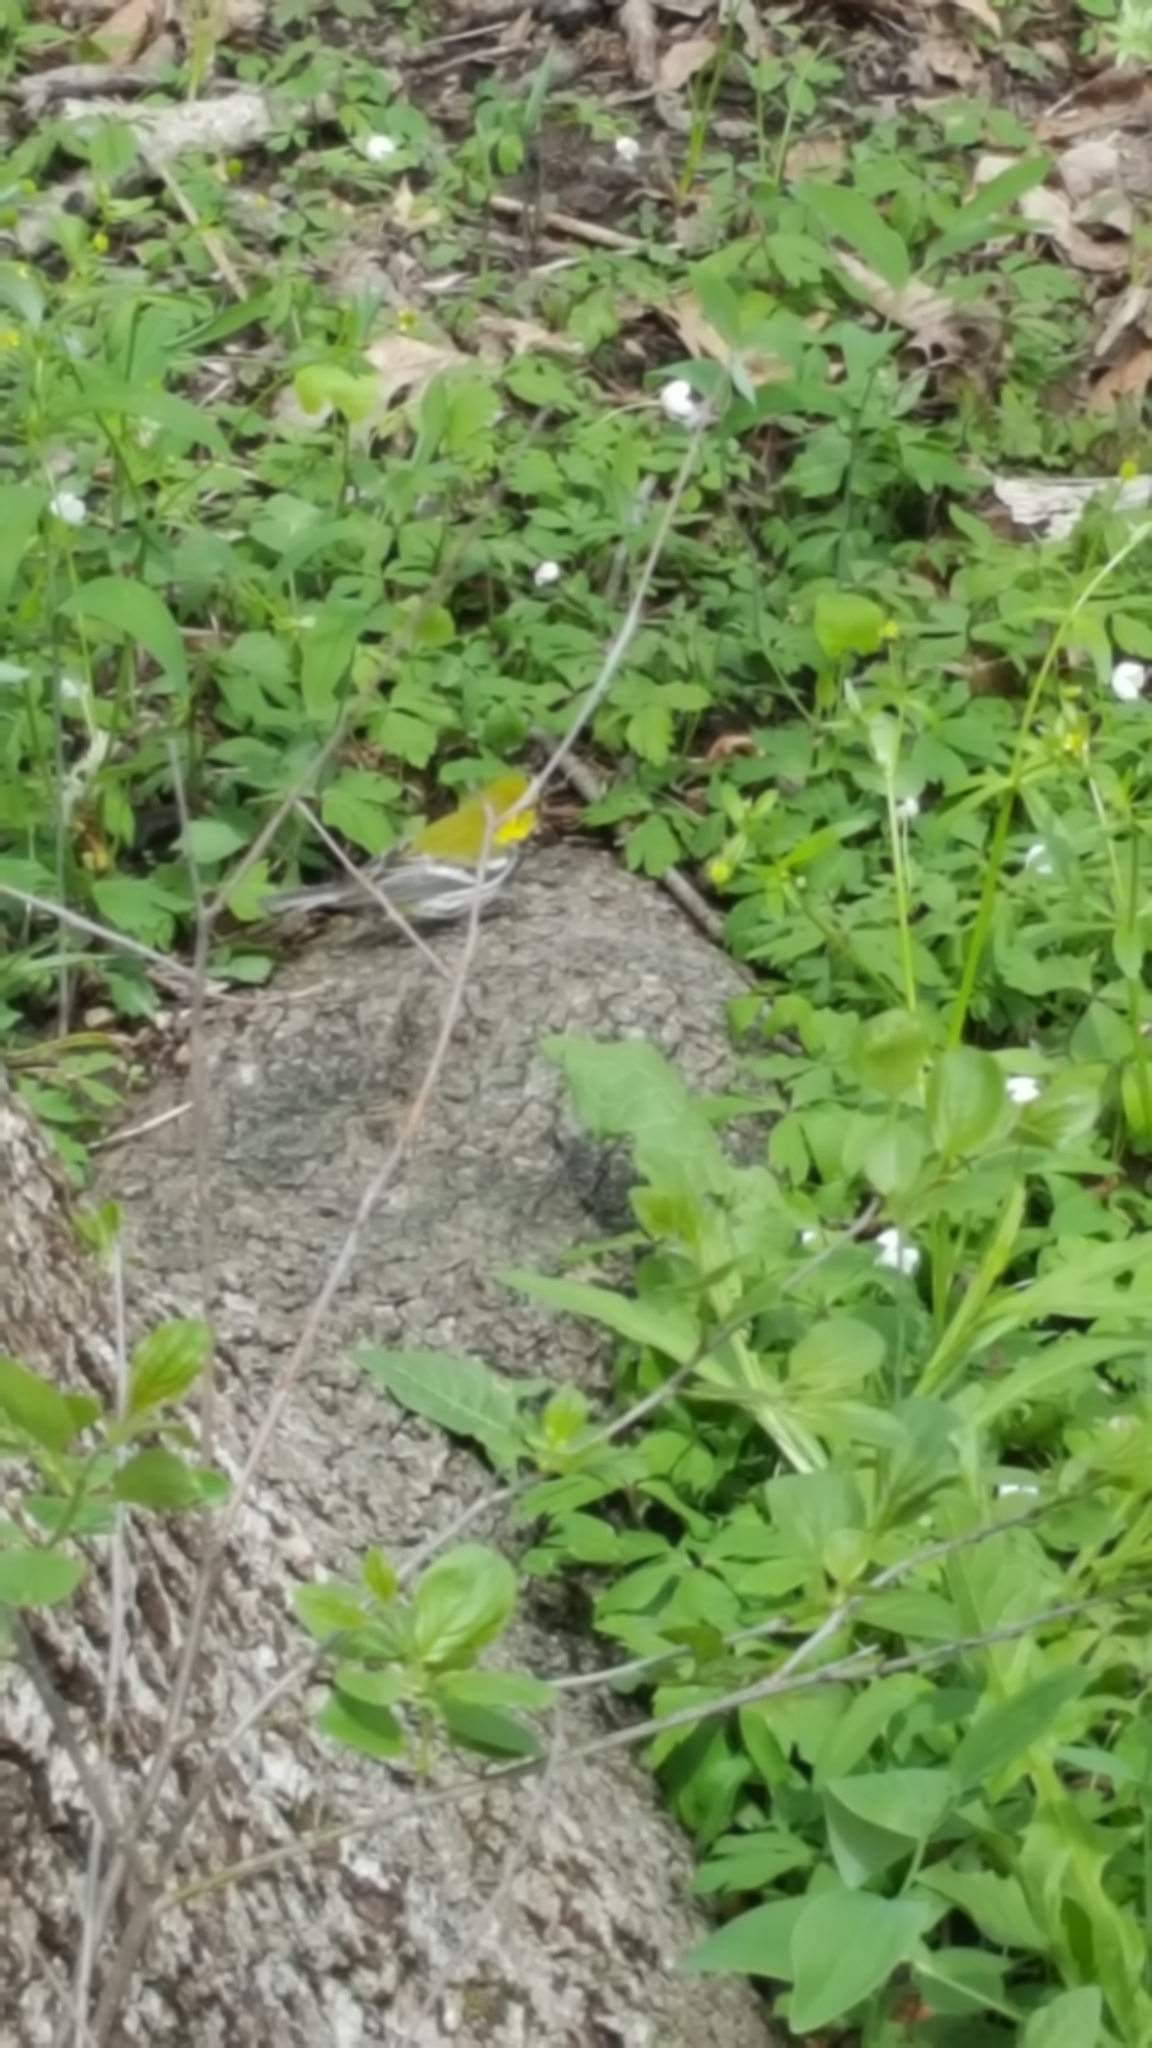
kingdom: Animalia
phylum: Chordata
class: Aves
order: Passeriformes
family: Parulidae
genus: Setophaga
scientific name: Setophaga virens
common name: Black-throated green warbler
